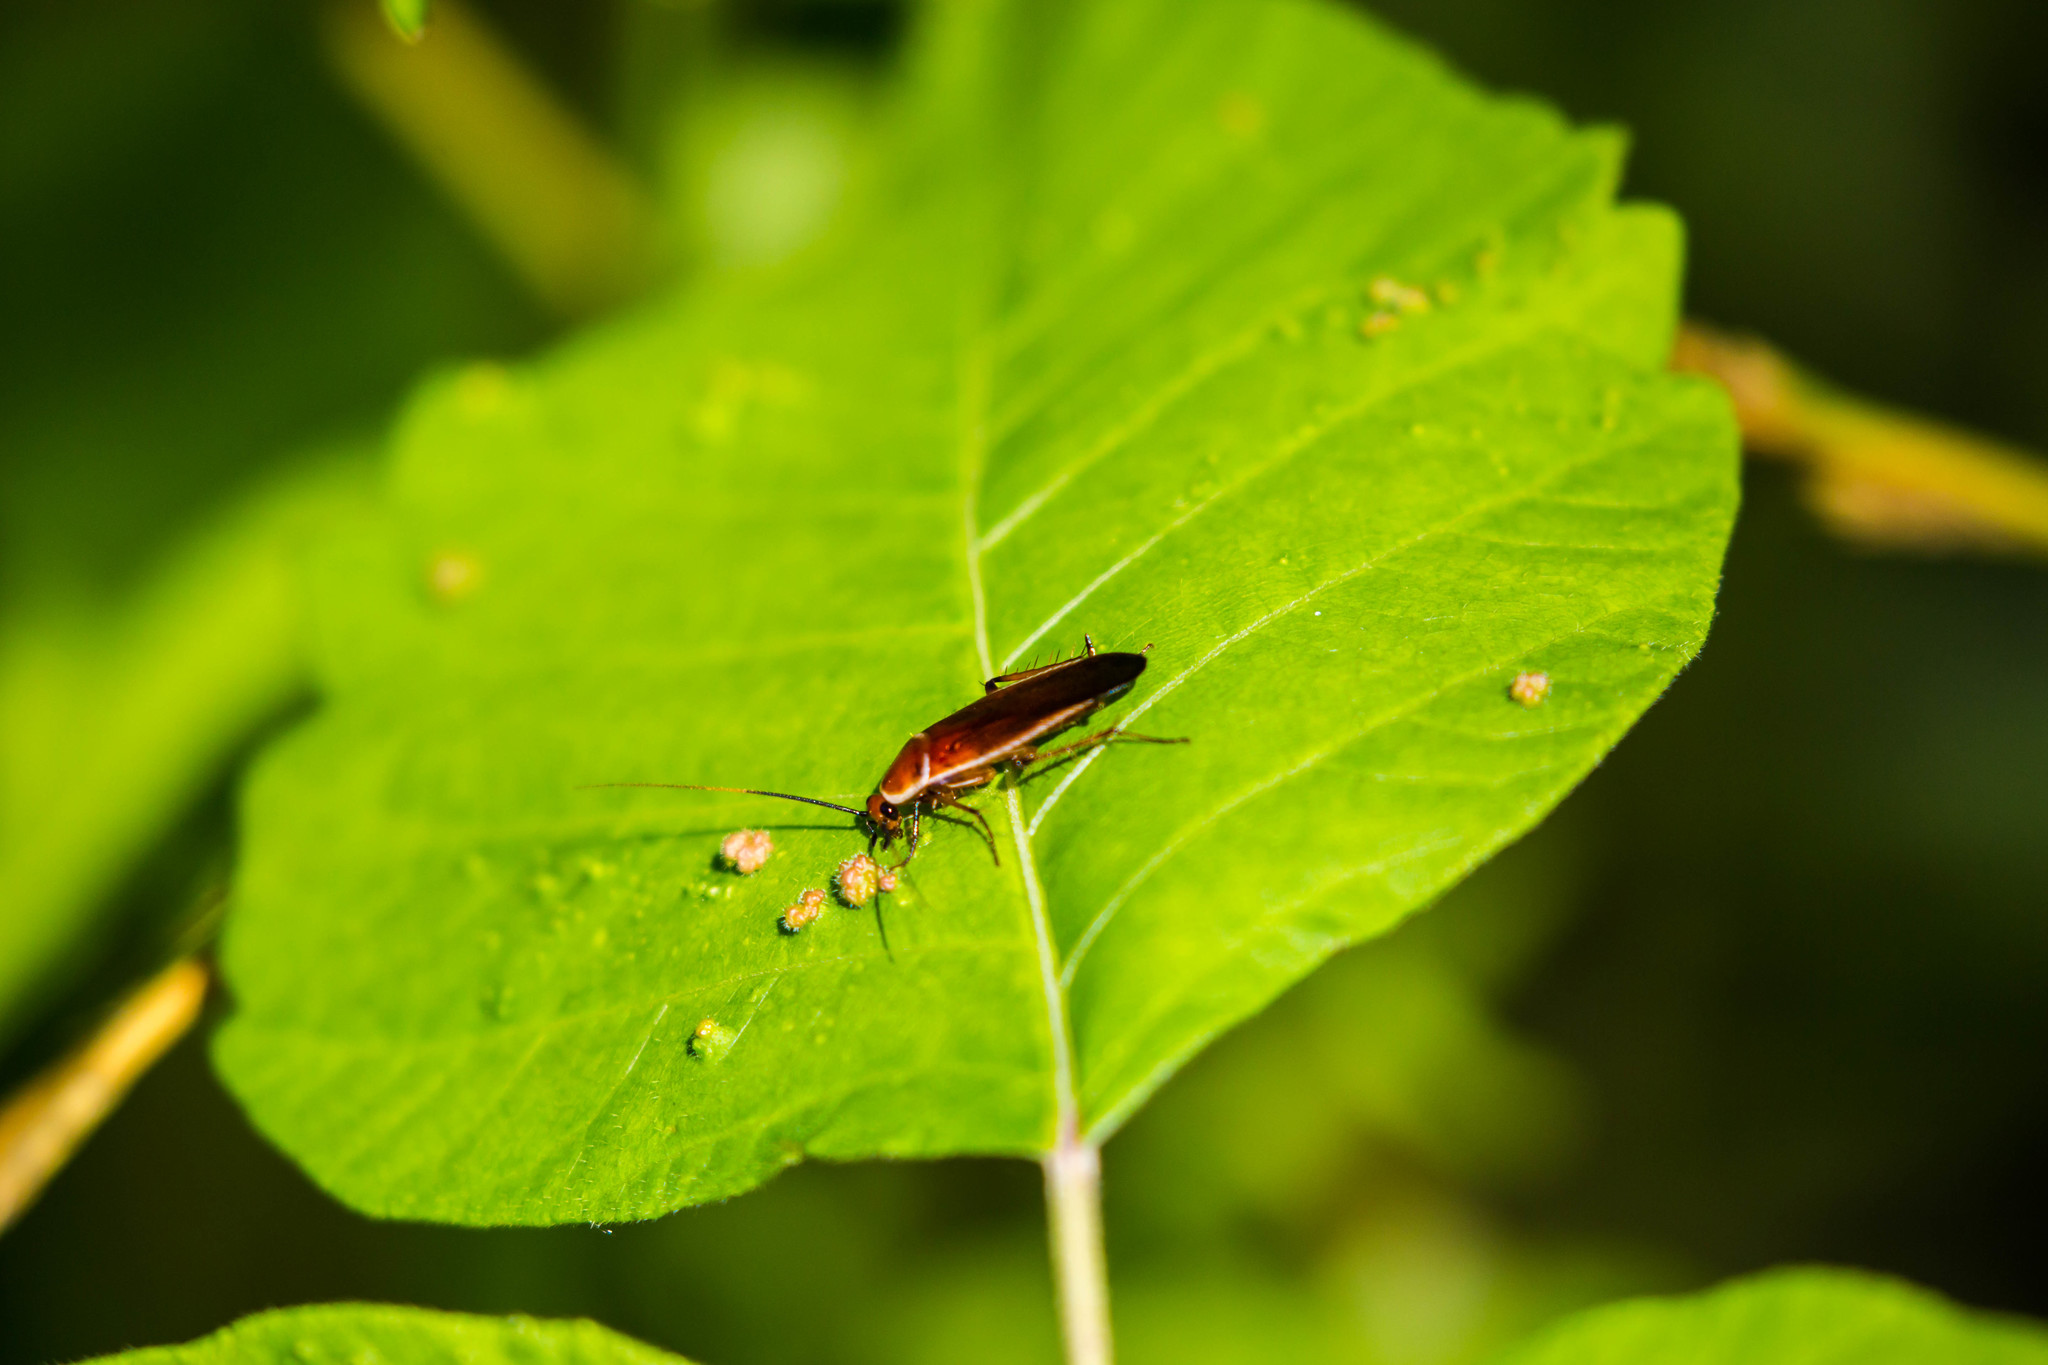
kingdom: Animalia
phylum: Arthropoda
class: Insecta
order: Blattodea
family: Ectobiidae
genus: Pseudomops
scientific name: Pseudomops septentrionalis
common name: Pale-bordered field cockroach
